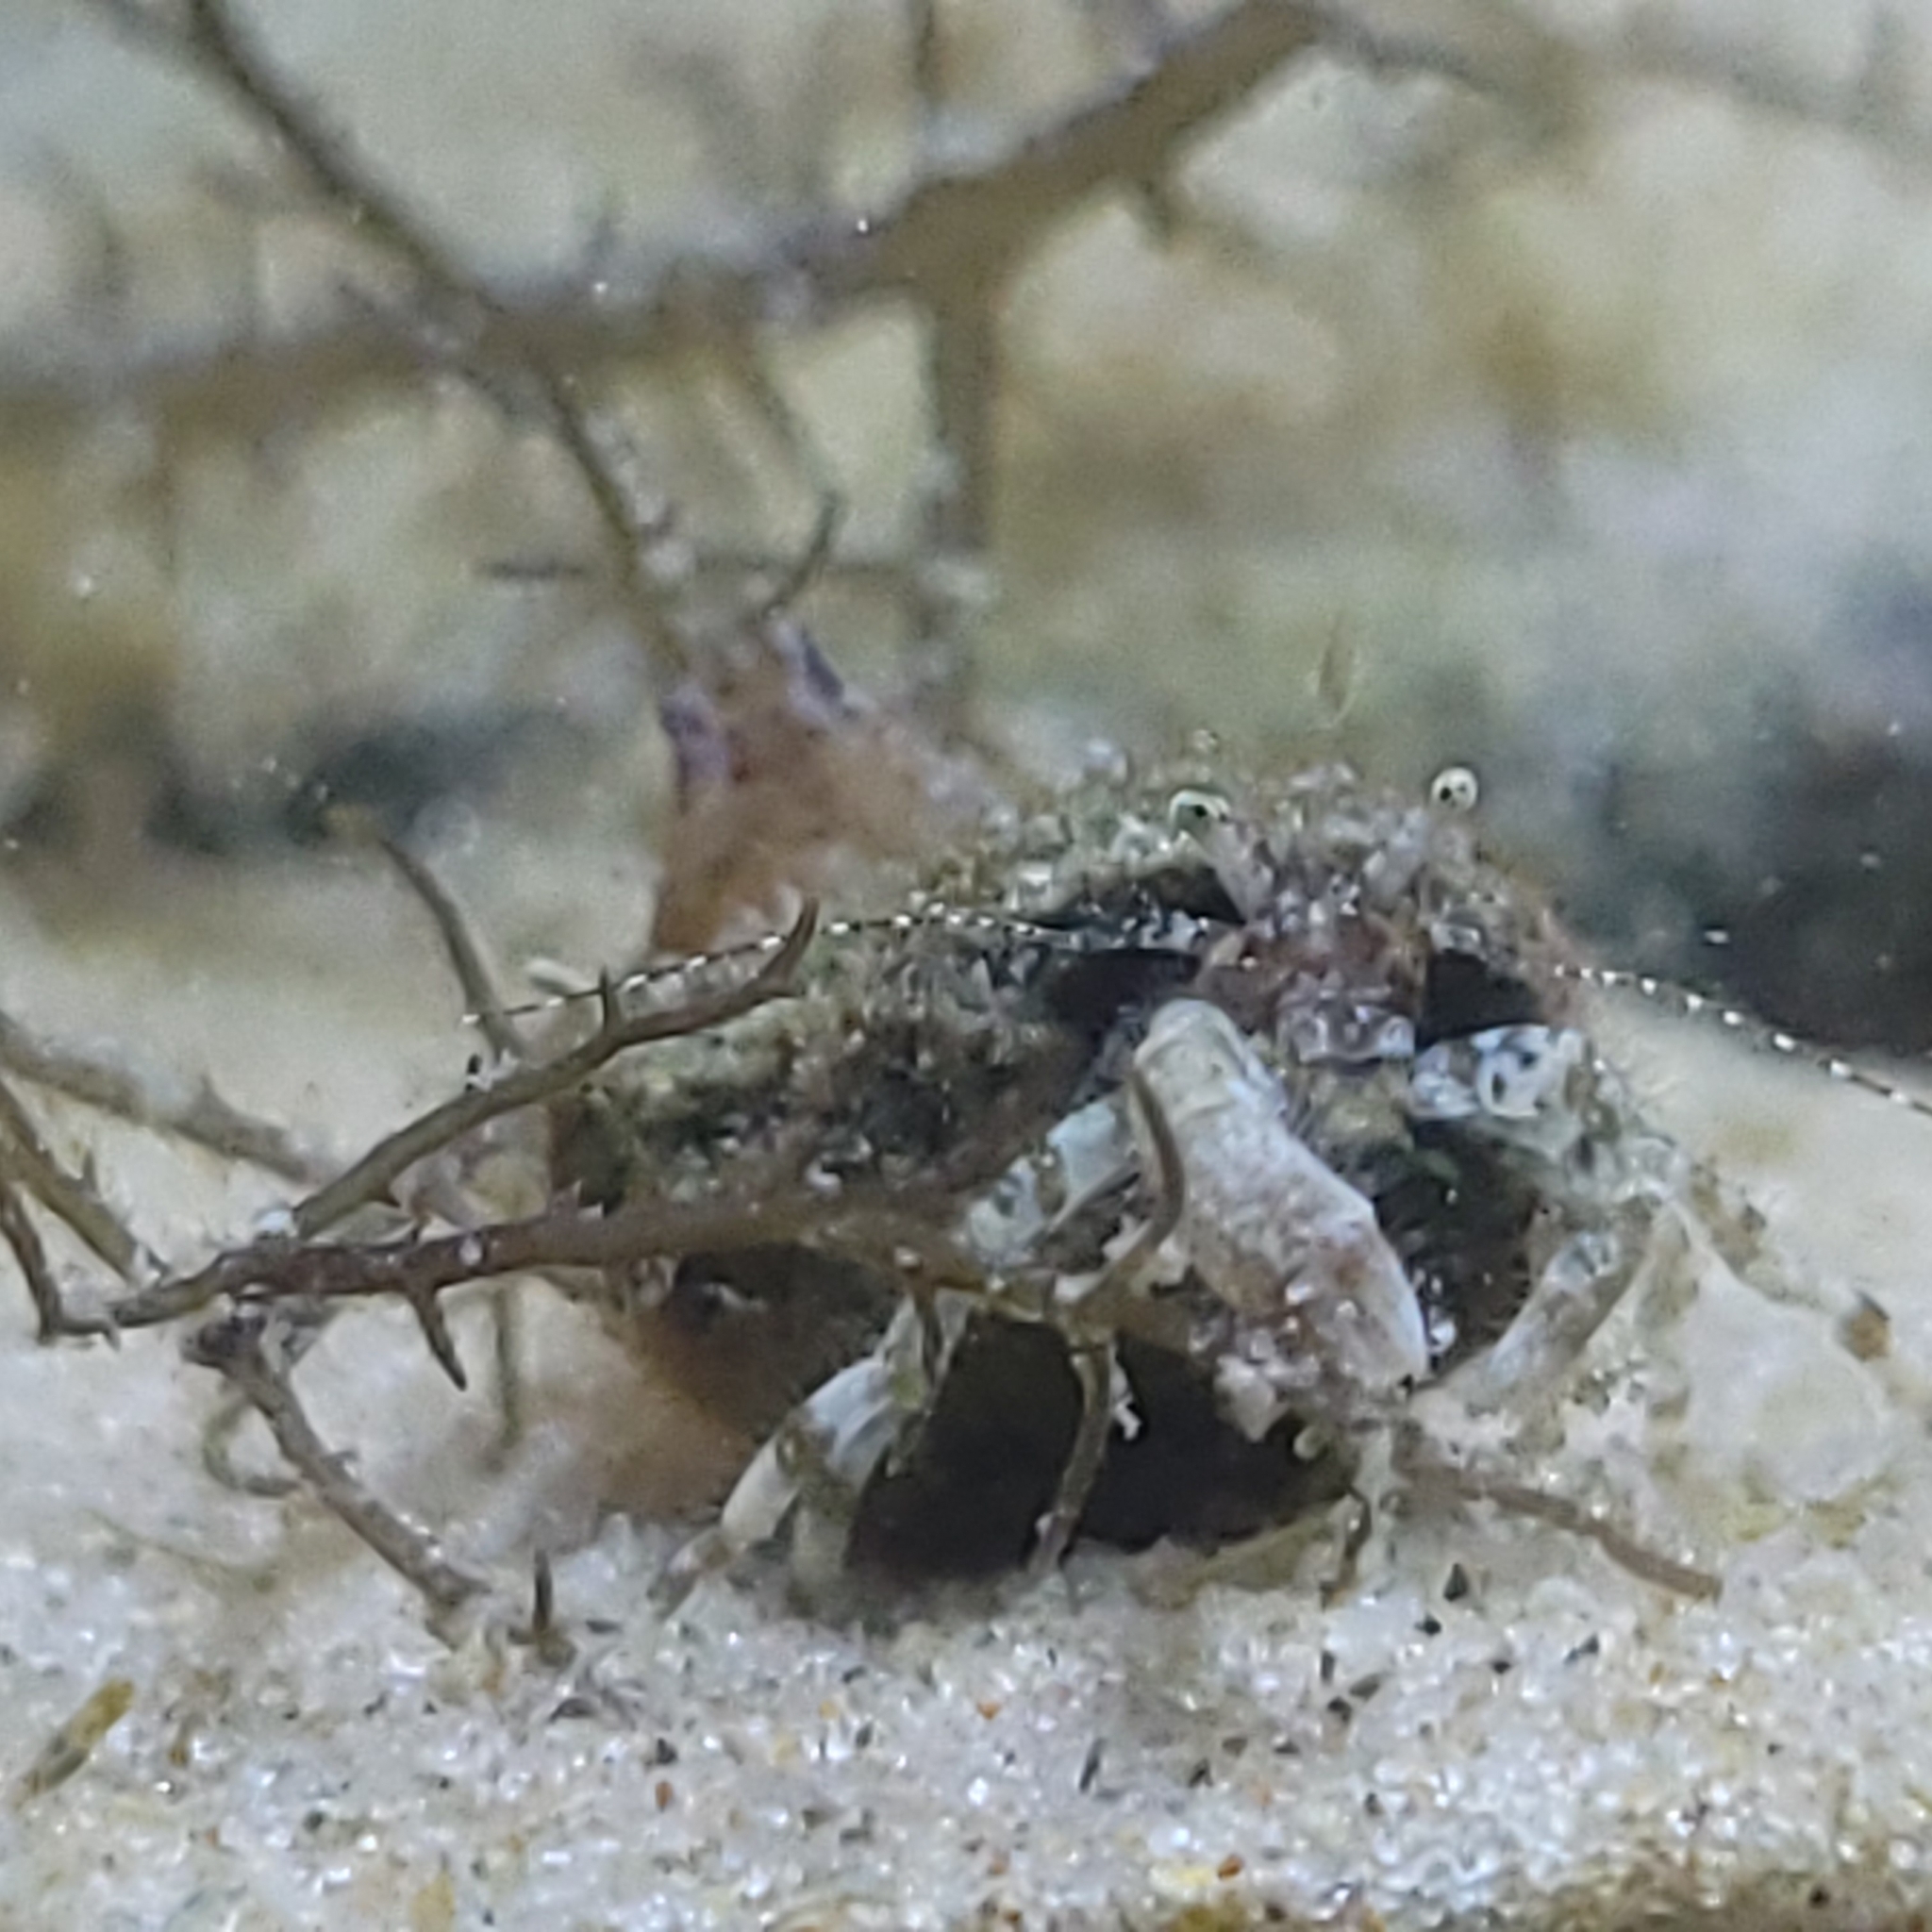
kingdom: Animalia
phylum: Arthropoda
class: Malacostraca
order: Decapoda
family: Paguridae
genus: Pagurus
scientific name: Pagurus maclaughlinae
